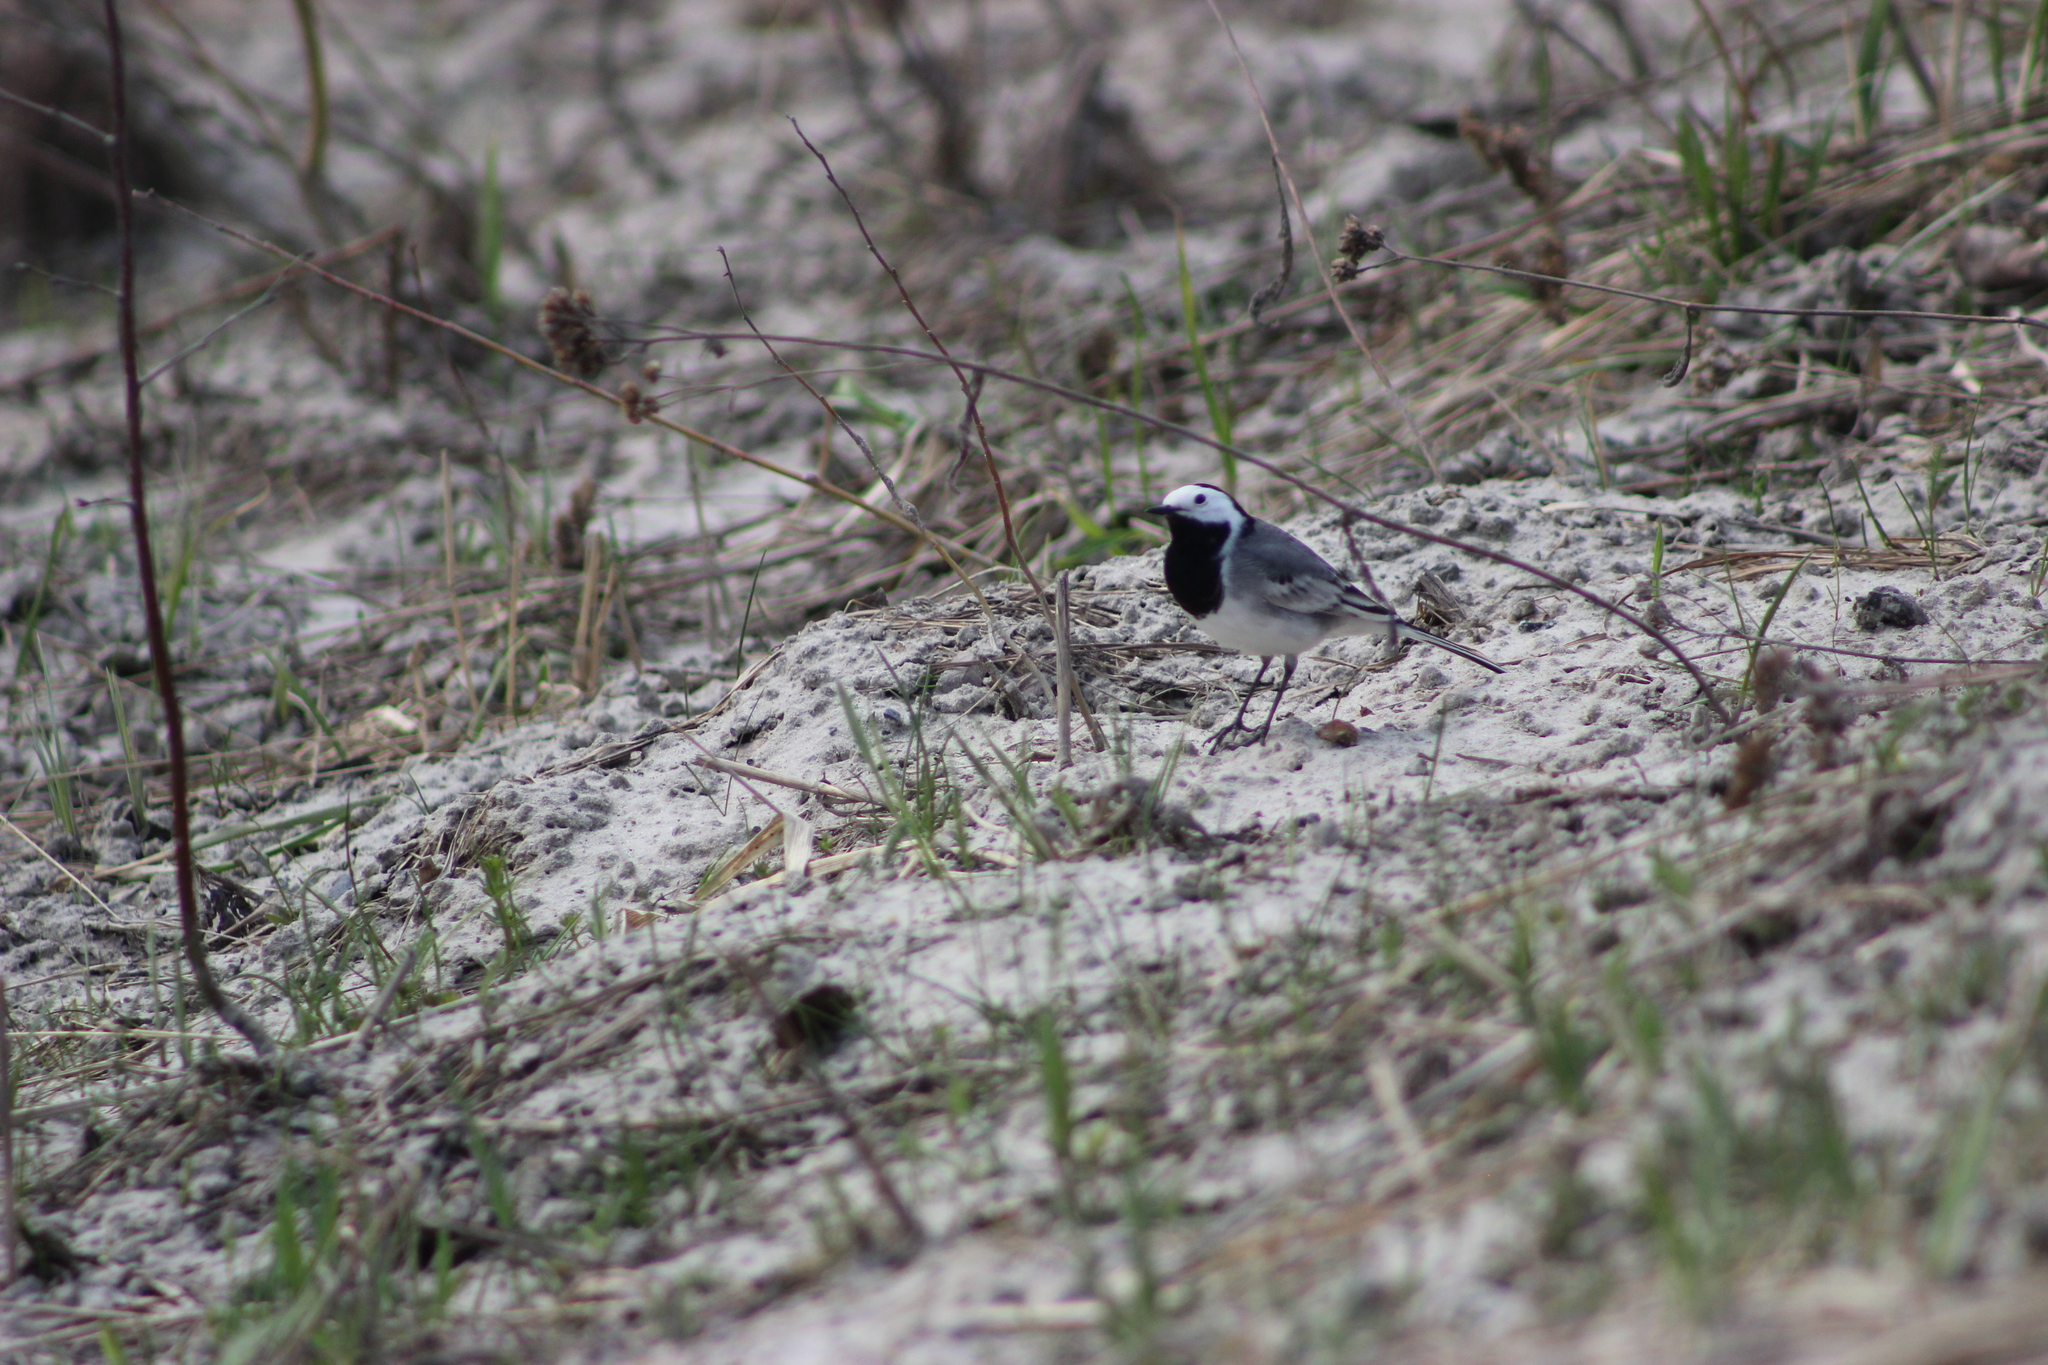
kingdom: Animalia
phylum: Chordata
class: Aves
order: Passeriformes
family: Motacillidae
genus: Motacilla
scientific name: Motacilla alba
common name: White wagtail
